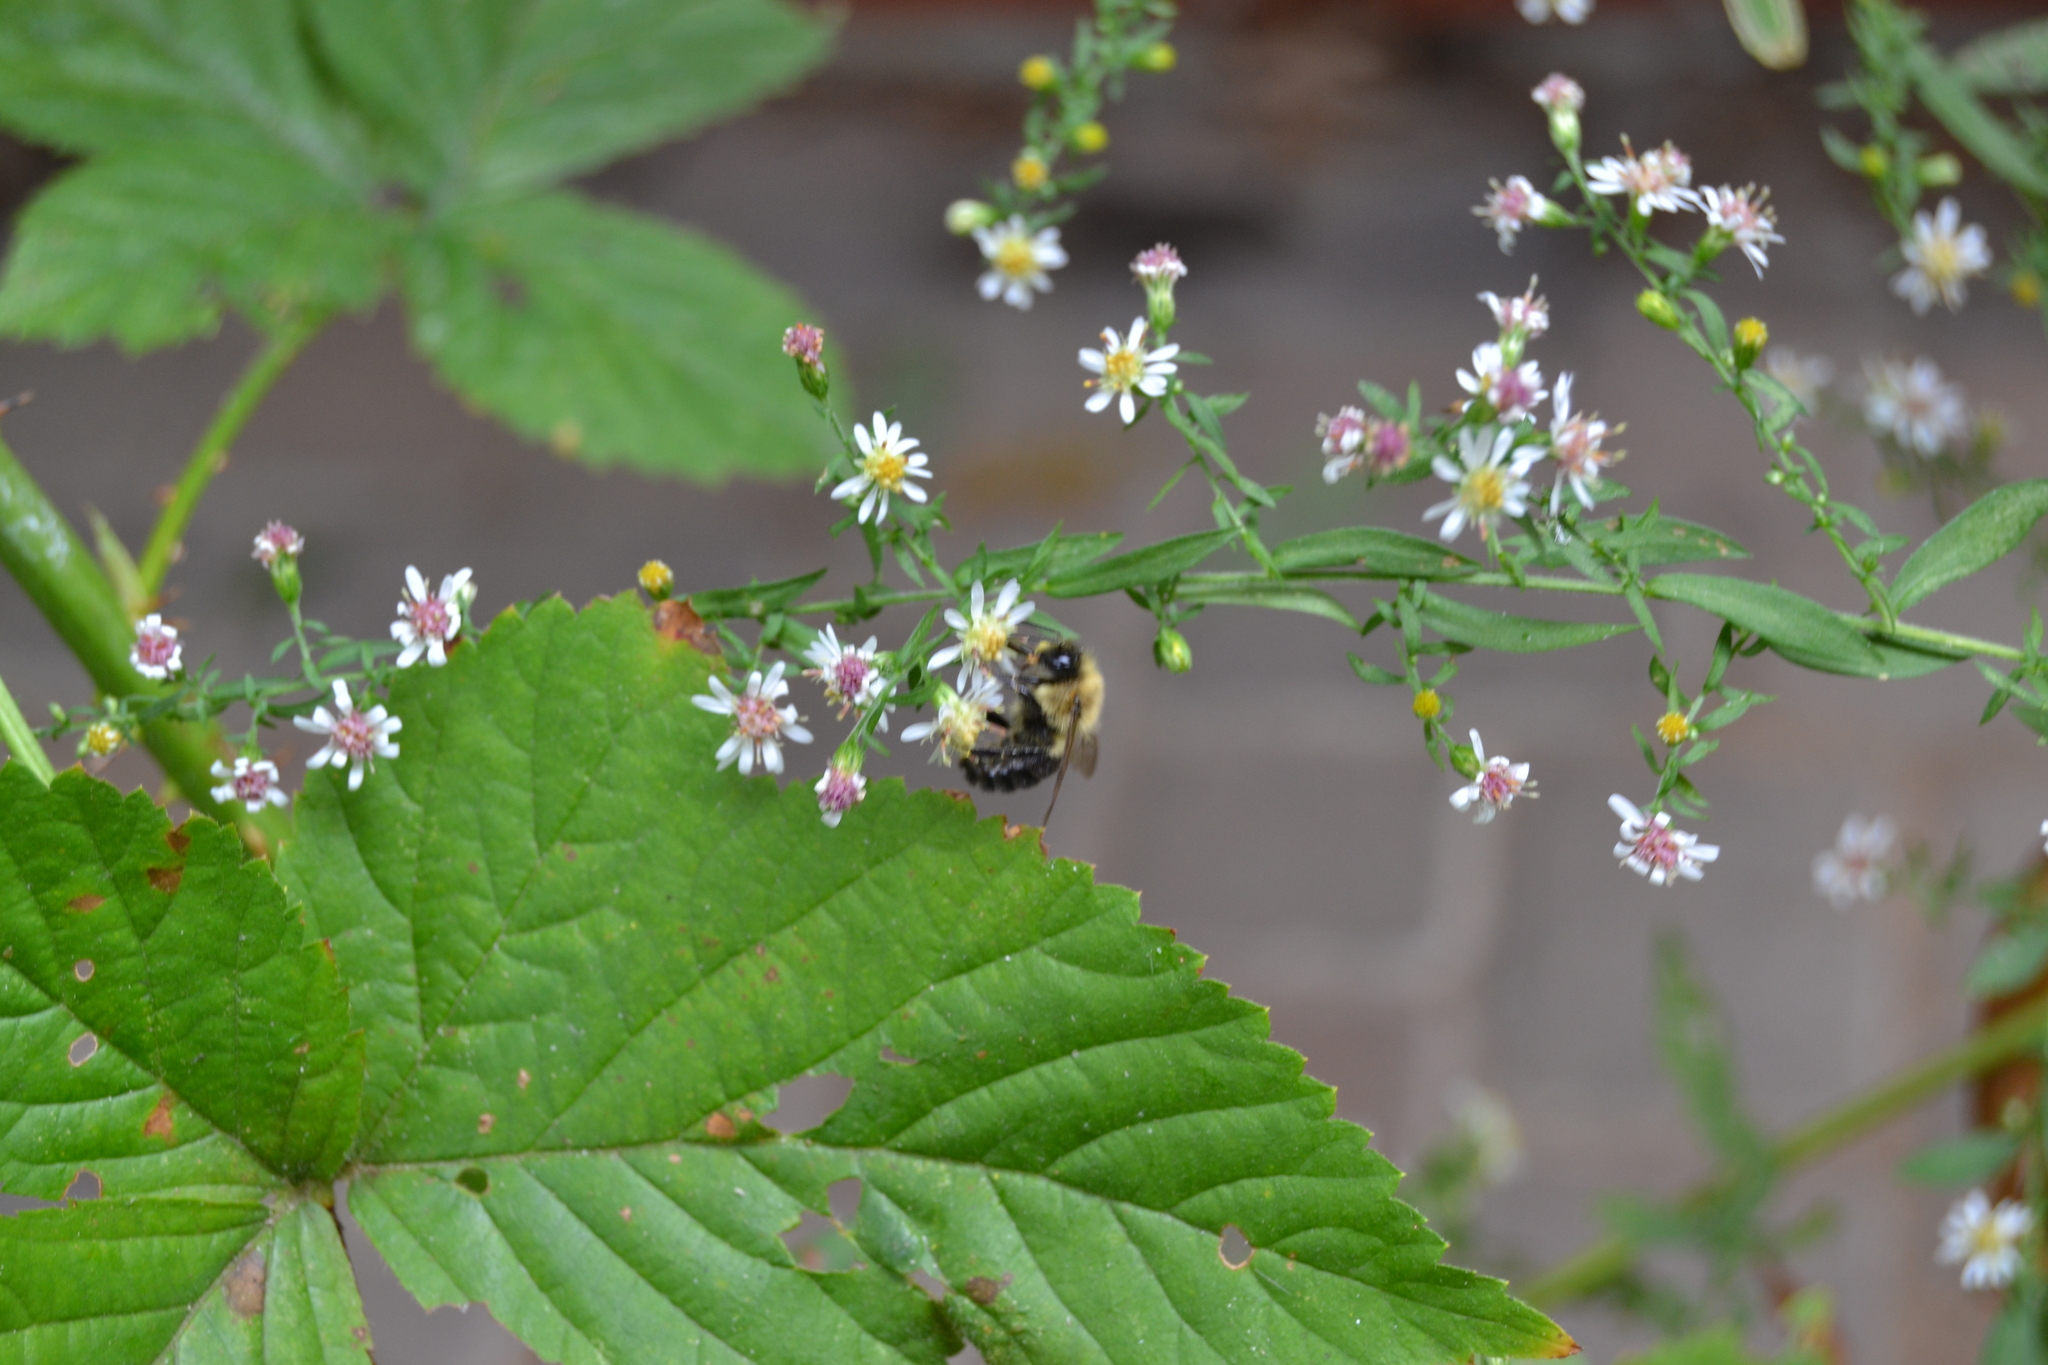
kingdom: Animalia
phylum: Arthropoda
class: Insecta
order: Hymenoptera
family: Apidae
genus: Bombus
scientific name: Bombus impatiens
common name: Common eastern bumble bee
